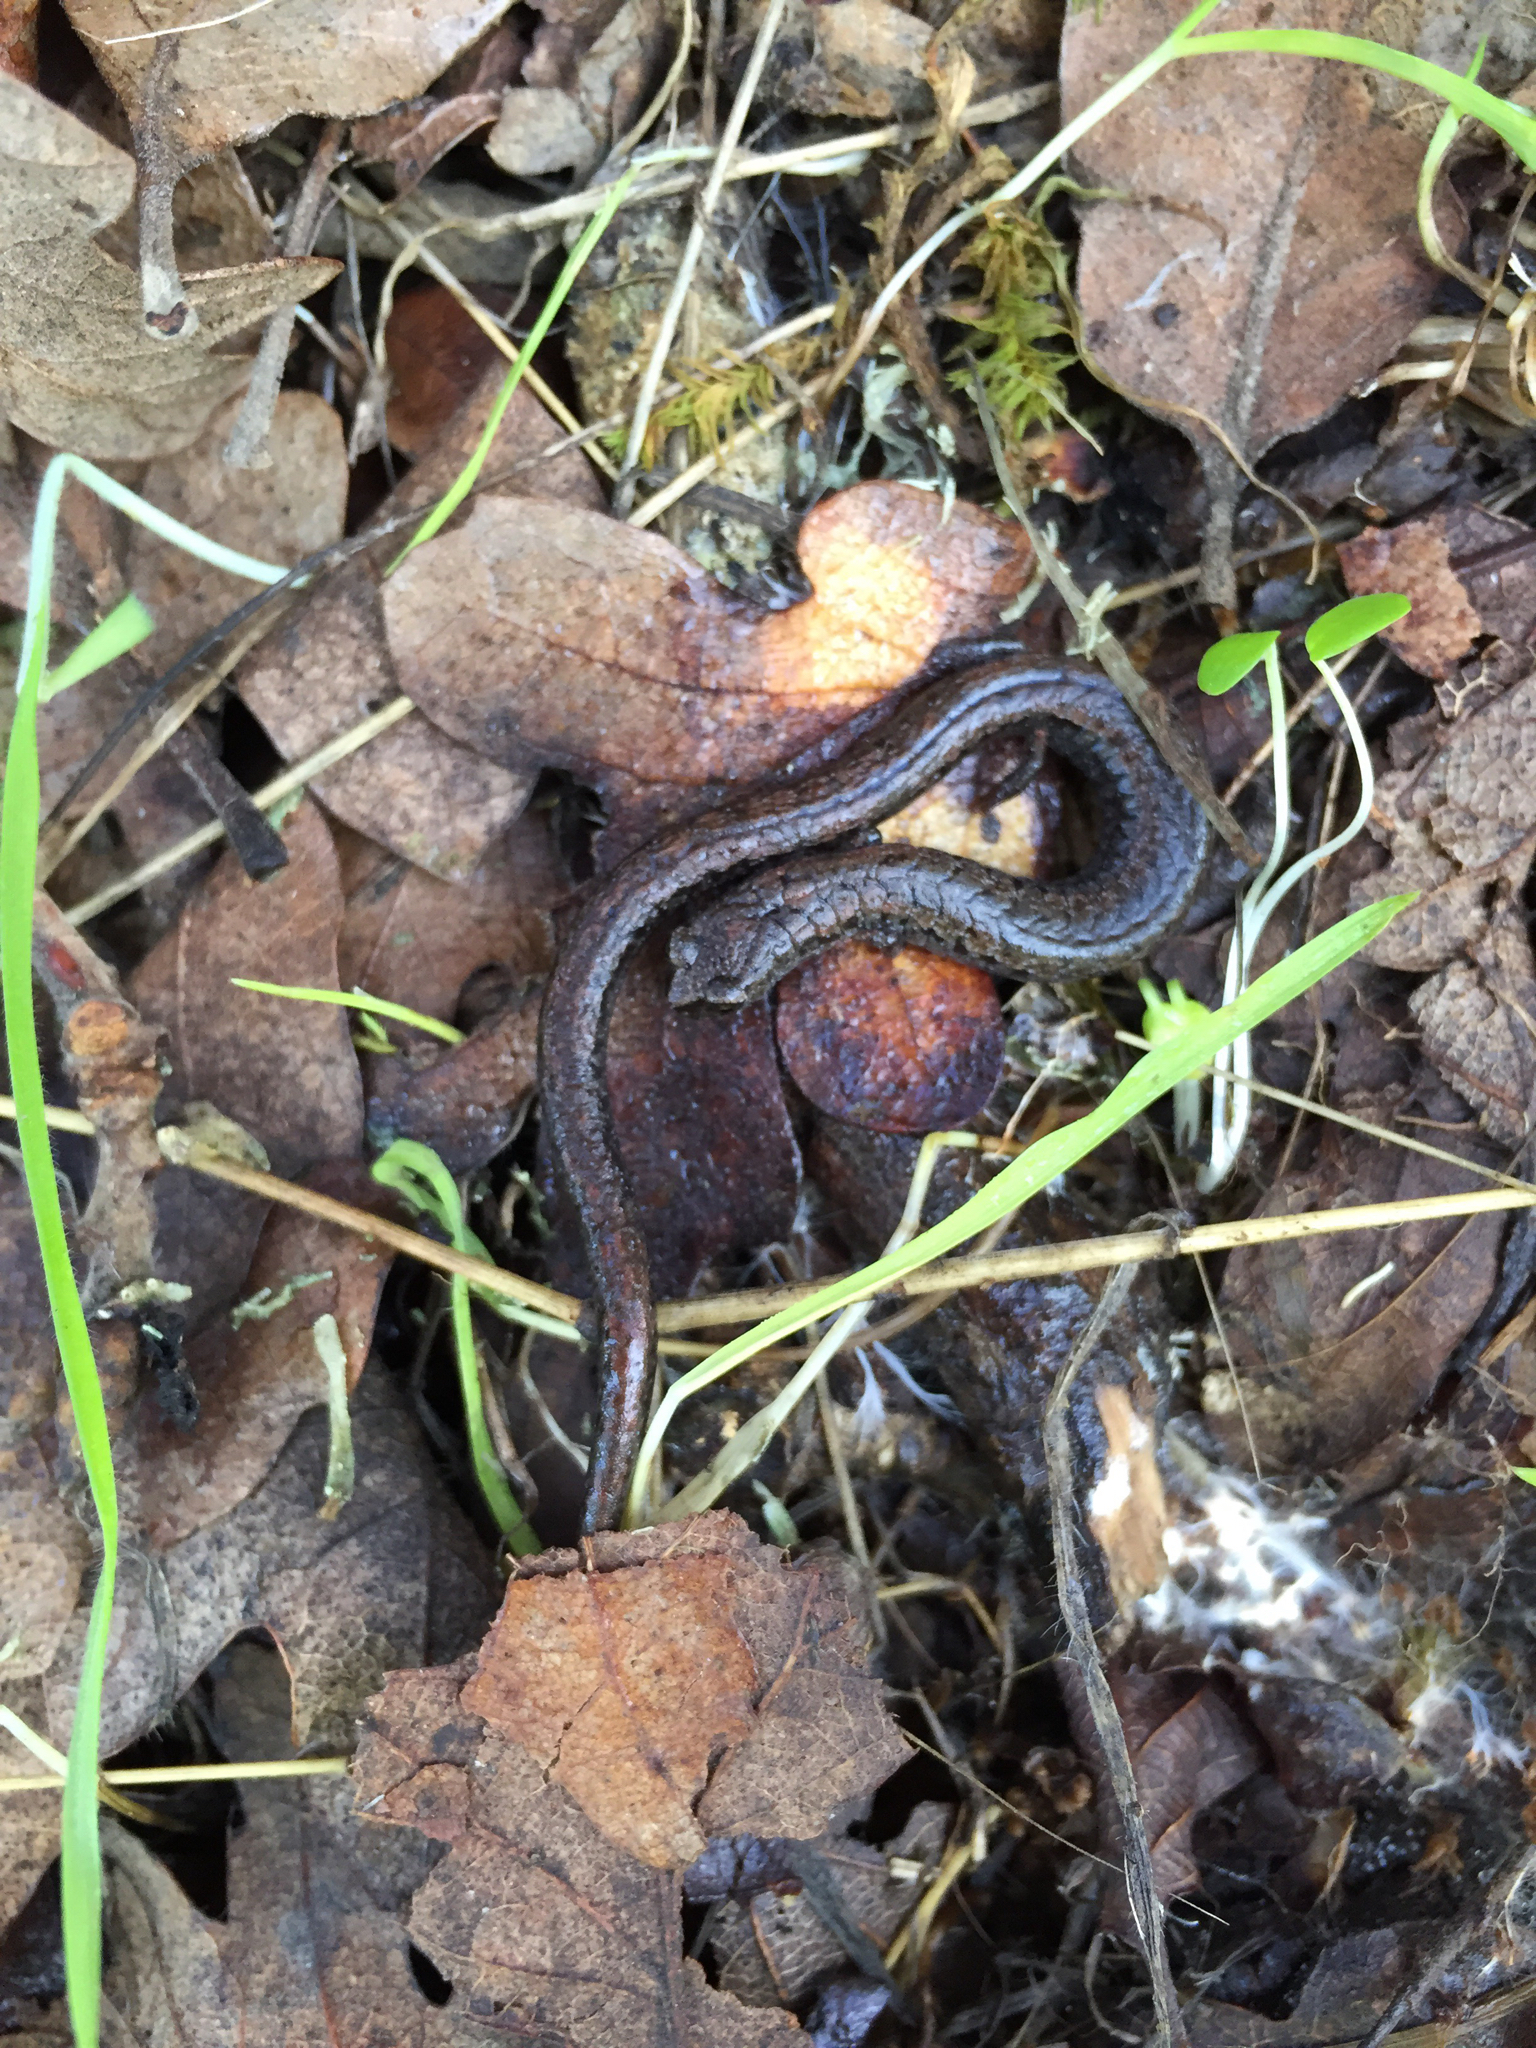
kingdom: Animalia
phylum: Chordata
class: Amphibia
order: Caudata
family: Plethodontidae
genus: Batrachoseps
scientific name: Batrachoseps attenuatus
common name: California slender salamander
